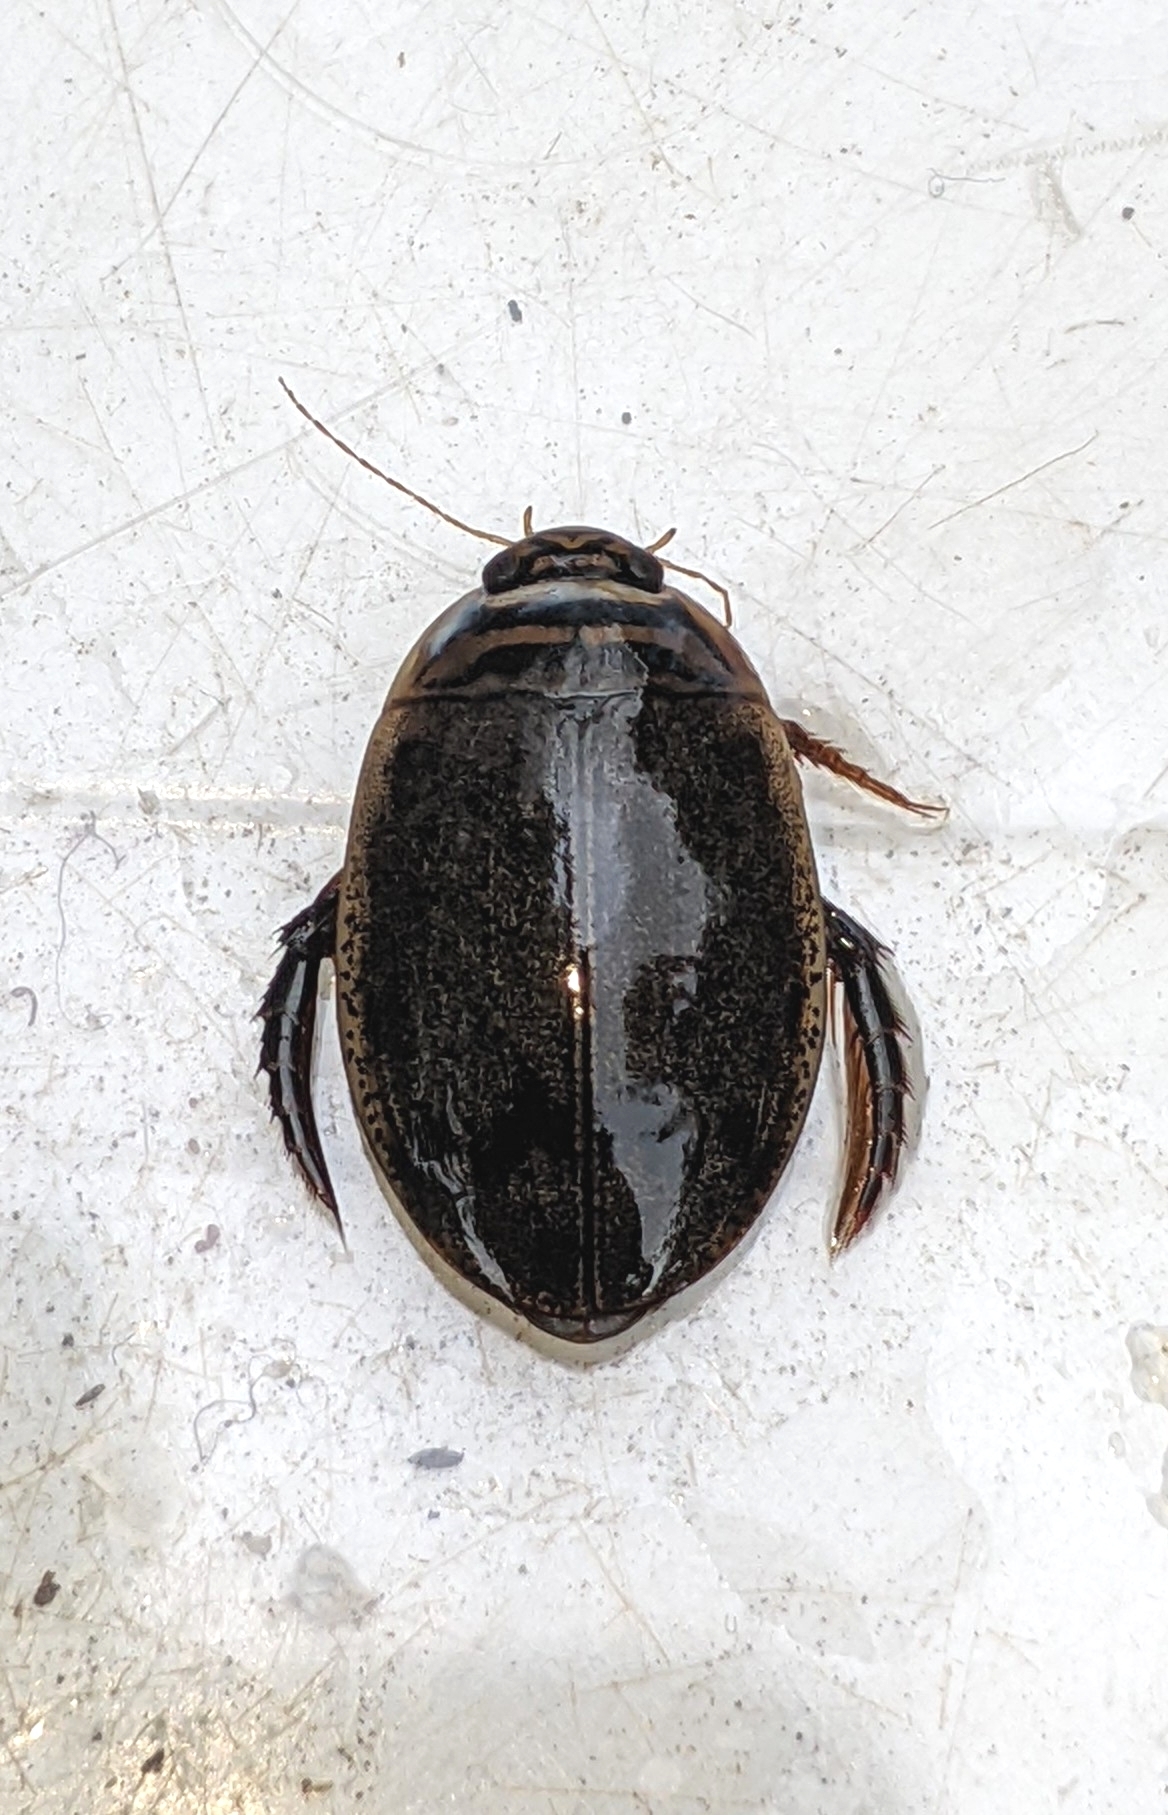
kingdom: Animalia
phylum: Arthropoda
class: Insecta
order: Coleoptera
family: Dytiscidae
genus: Acilius
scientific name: Acilius sulcatus
